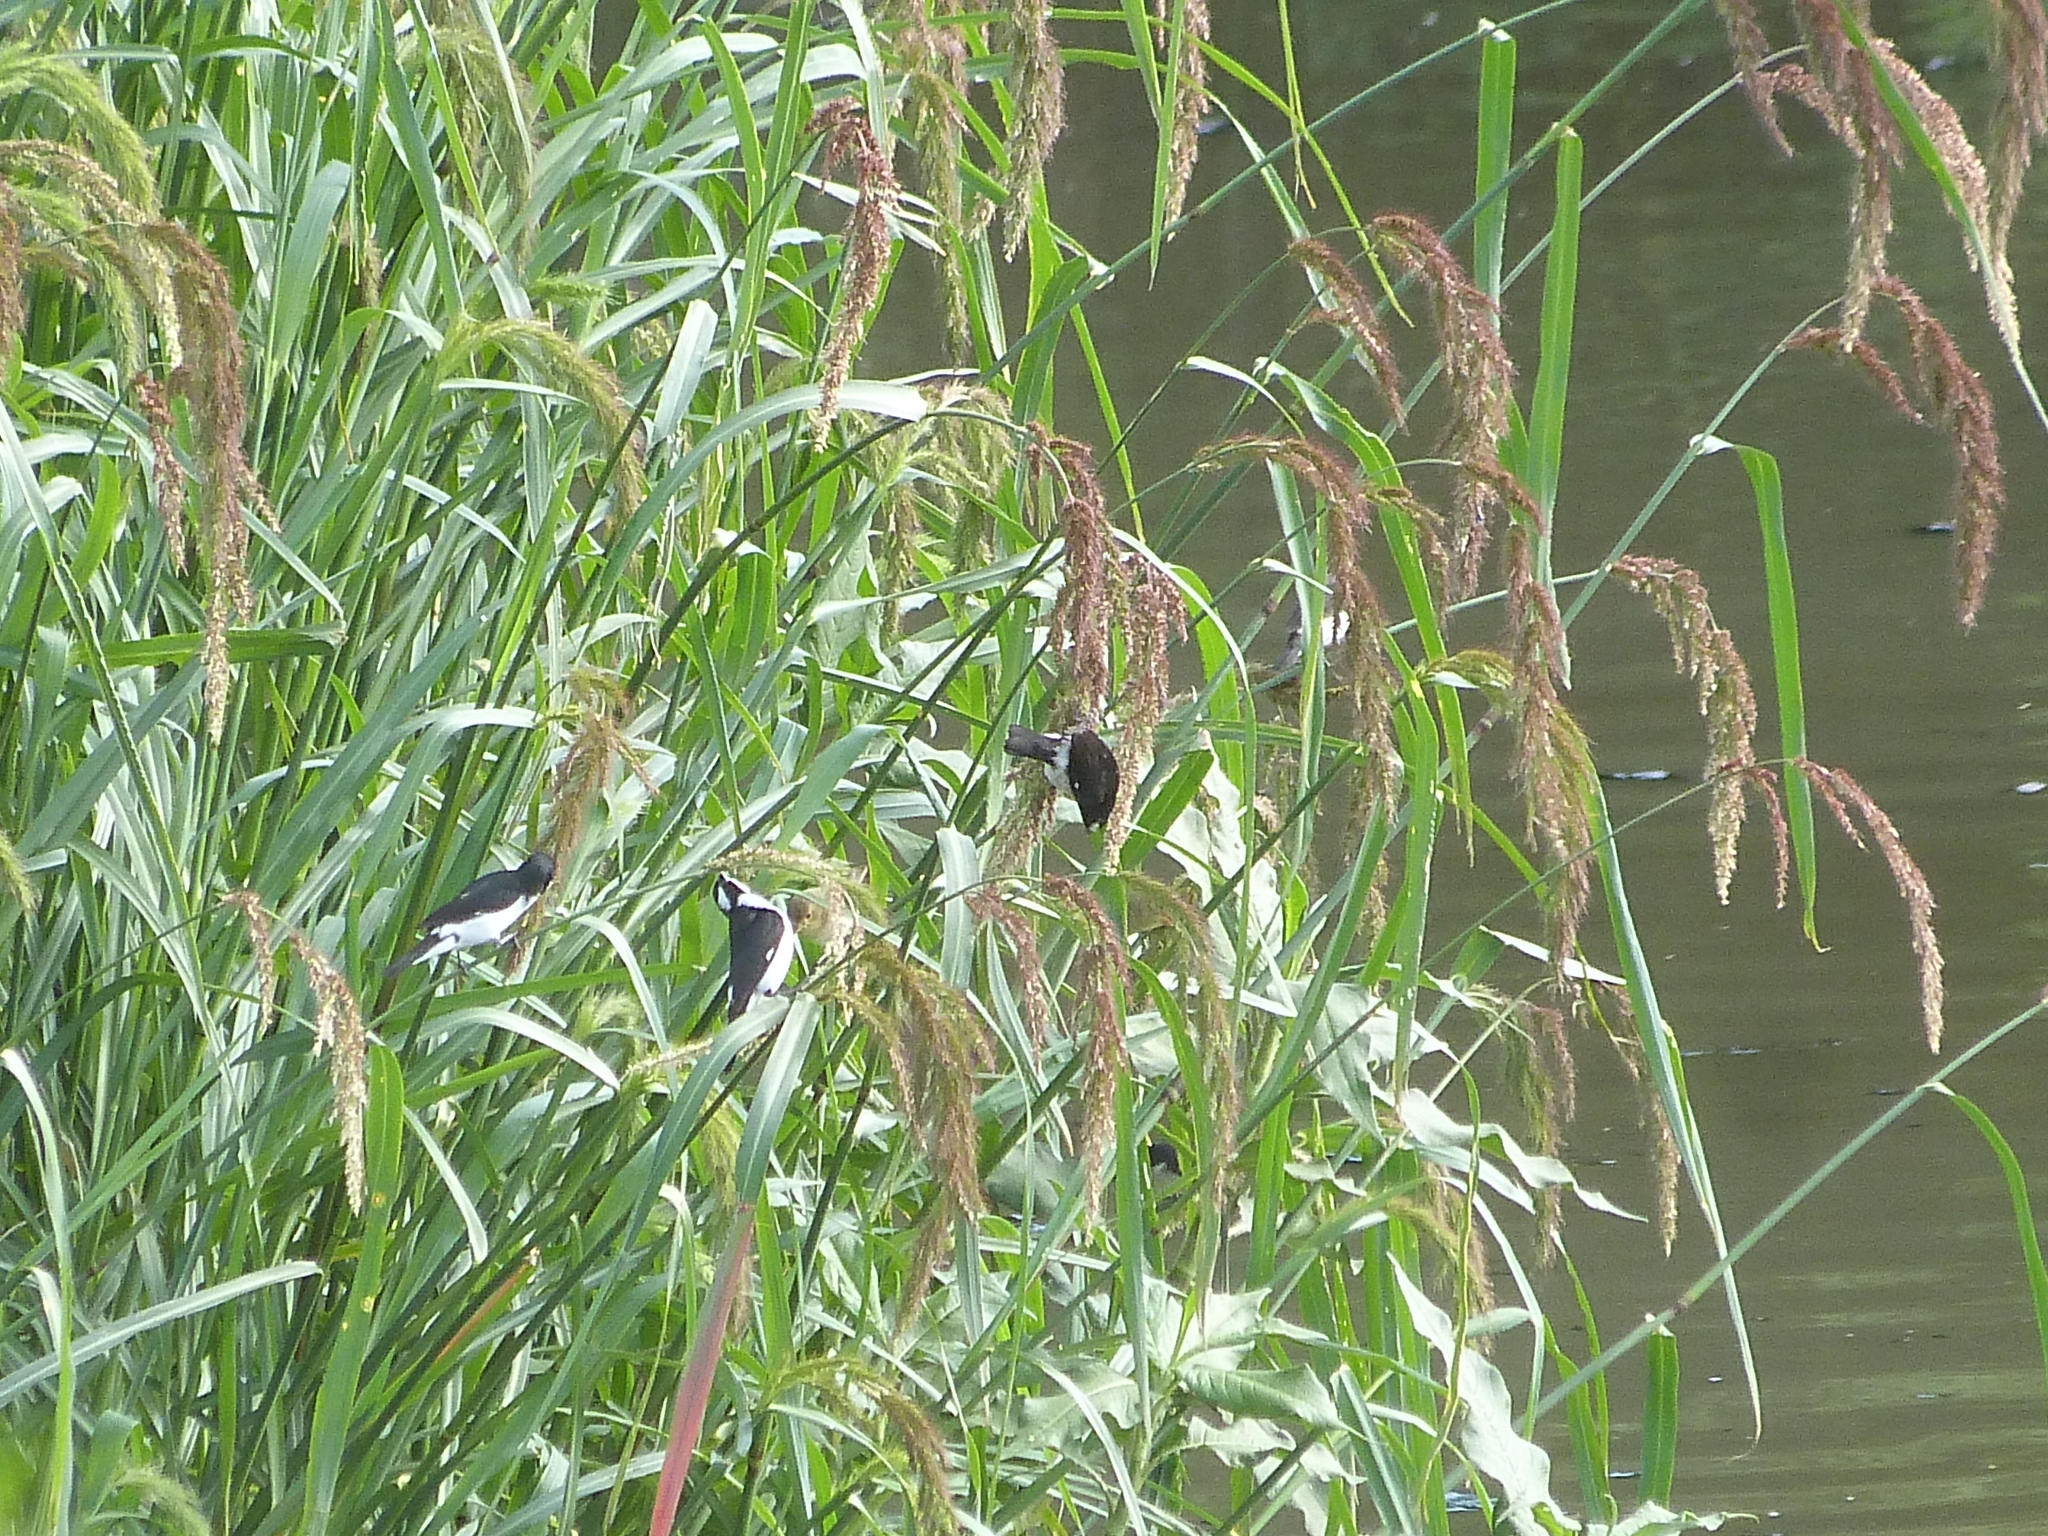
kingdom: Animalia
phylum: Chordata
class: Aves
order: Passeriformes
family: Thraupidae
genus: Sporophila
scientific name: Sporophila lineola
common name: Lined seedeater
